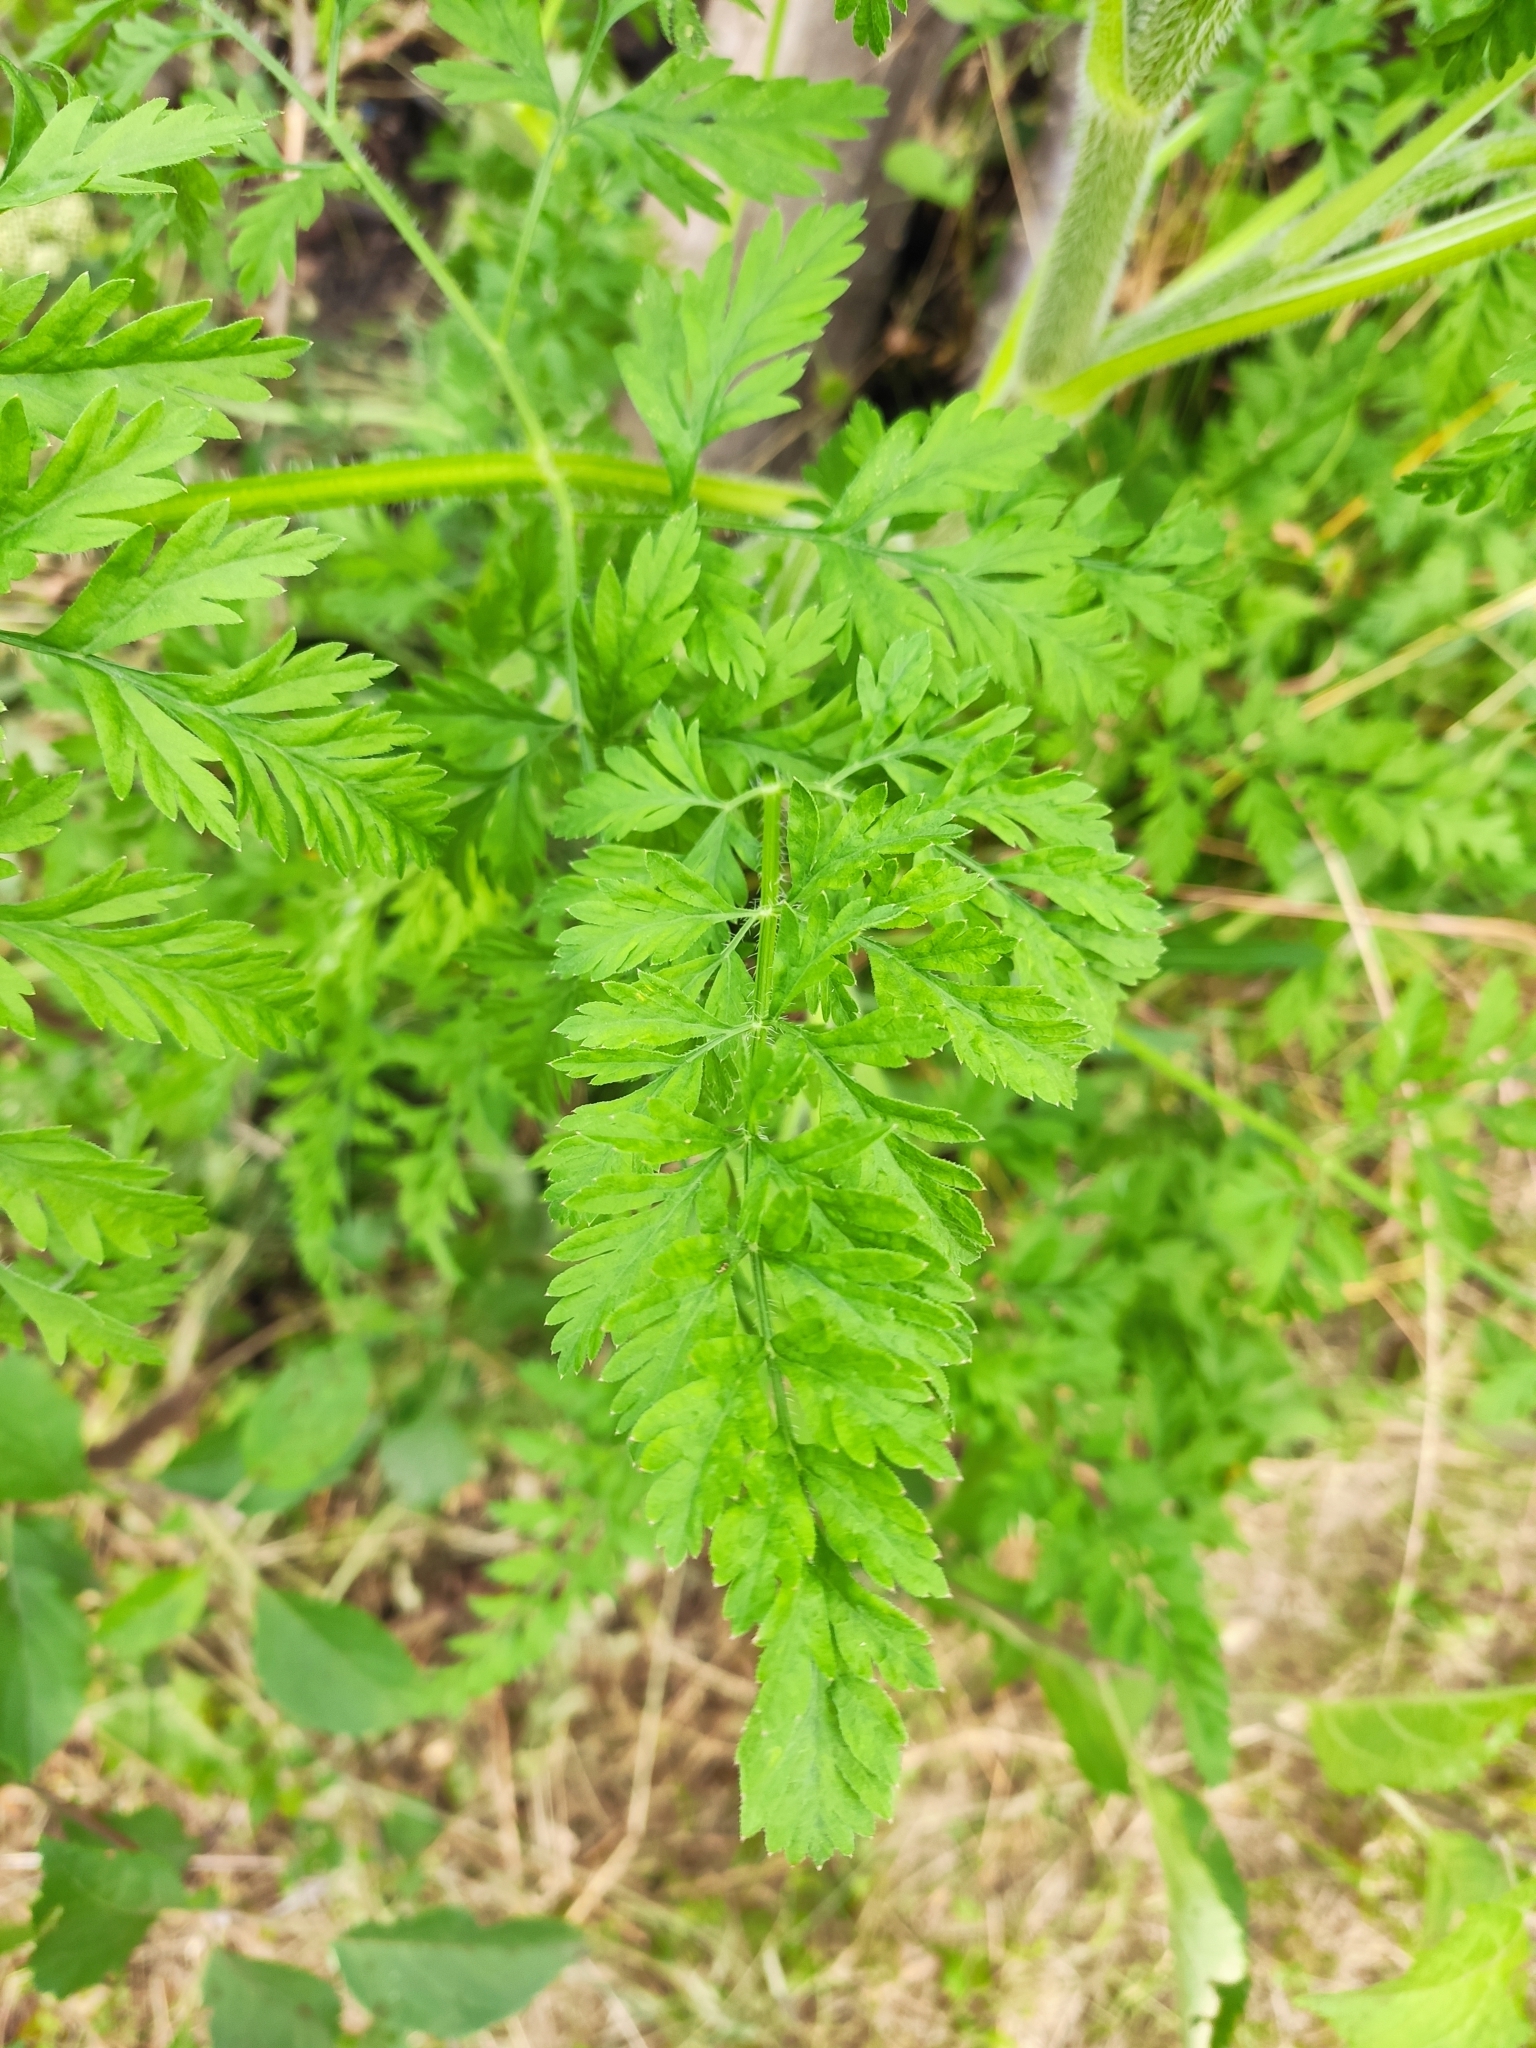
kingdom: Plantae
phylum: Tracheophyta
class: Magnoliopsida
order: Apiales
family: Apiaceae
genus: Daucus
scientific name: Daucus carota
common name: Wild carrot
